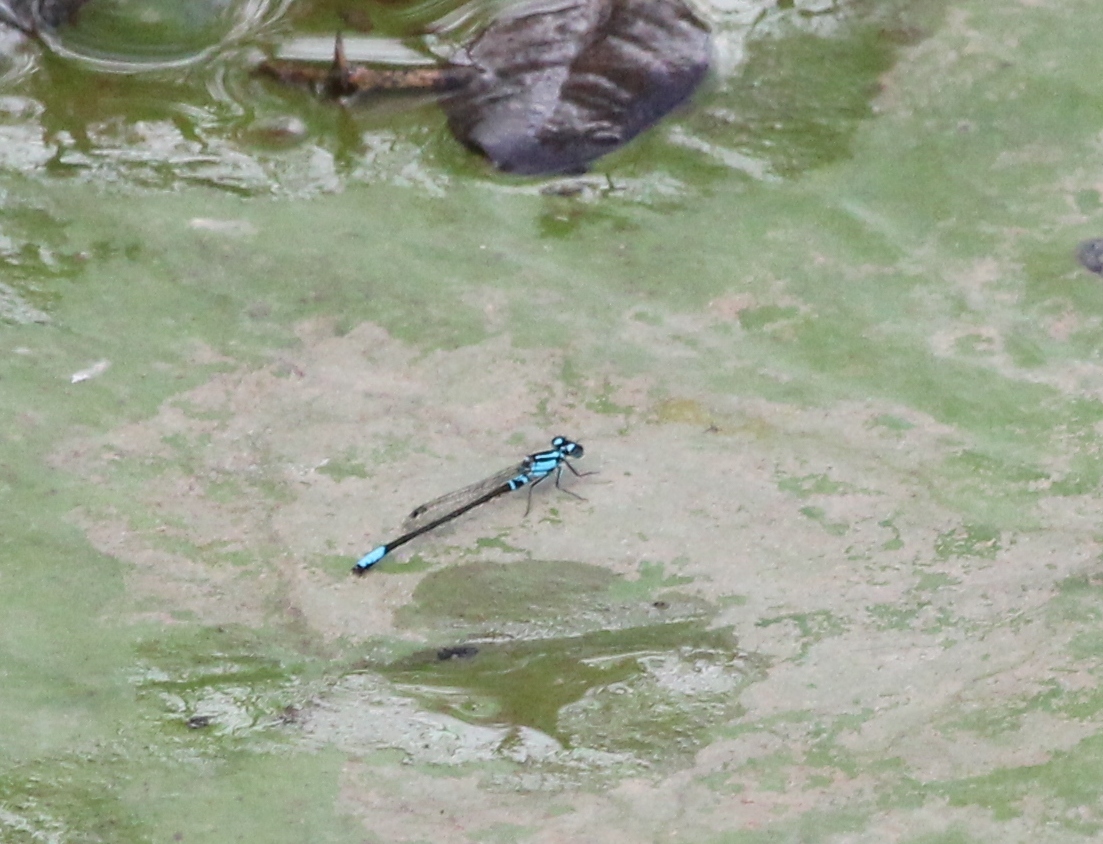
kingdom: Animalia
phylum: Arthropoda
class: Insecta
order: Odonata
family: Coenagrionidae
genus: Ischnura
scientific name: Ischnura kellicotti
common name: Lilypad forktail
